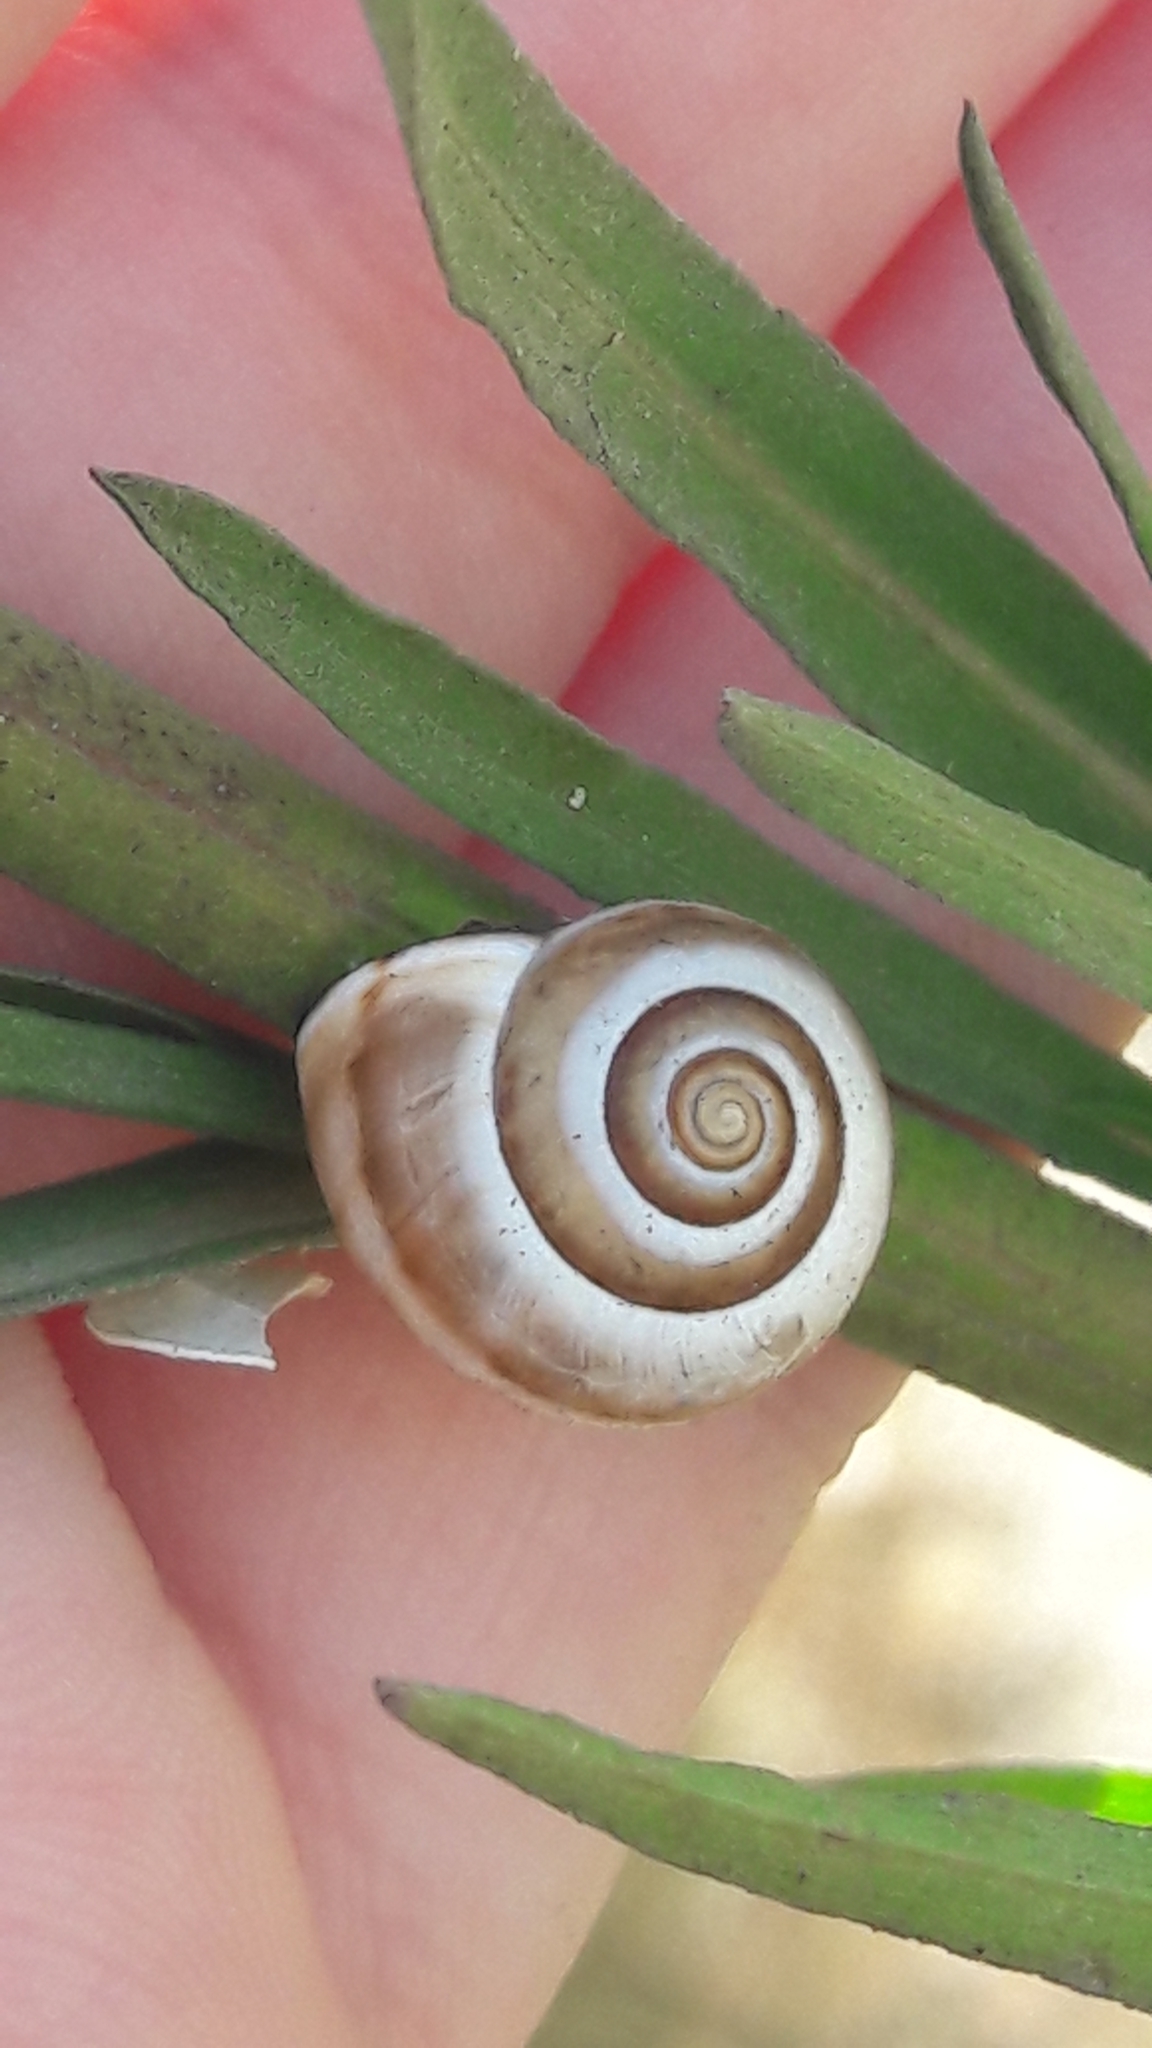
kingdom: Animalia
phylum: Mollusca
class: Gastropoda
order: Stylommatophora
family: Hygromiidae
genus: Monacha
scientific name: Monacha syriaca
